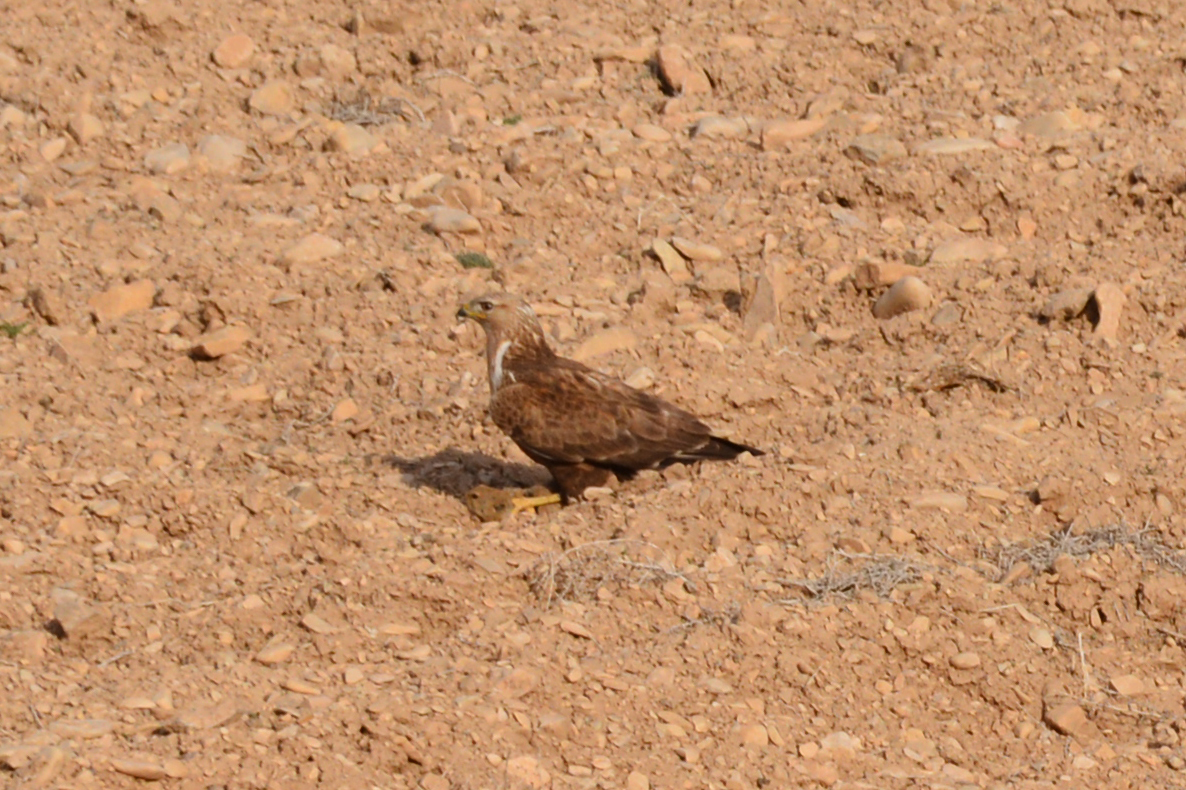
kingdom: Animalia
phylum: Chordata
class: Aves
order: Accipitriformes
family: Accipitridae
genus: Buteo
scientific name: Buteo rufinus
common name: Long-legged buzzard
